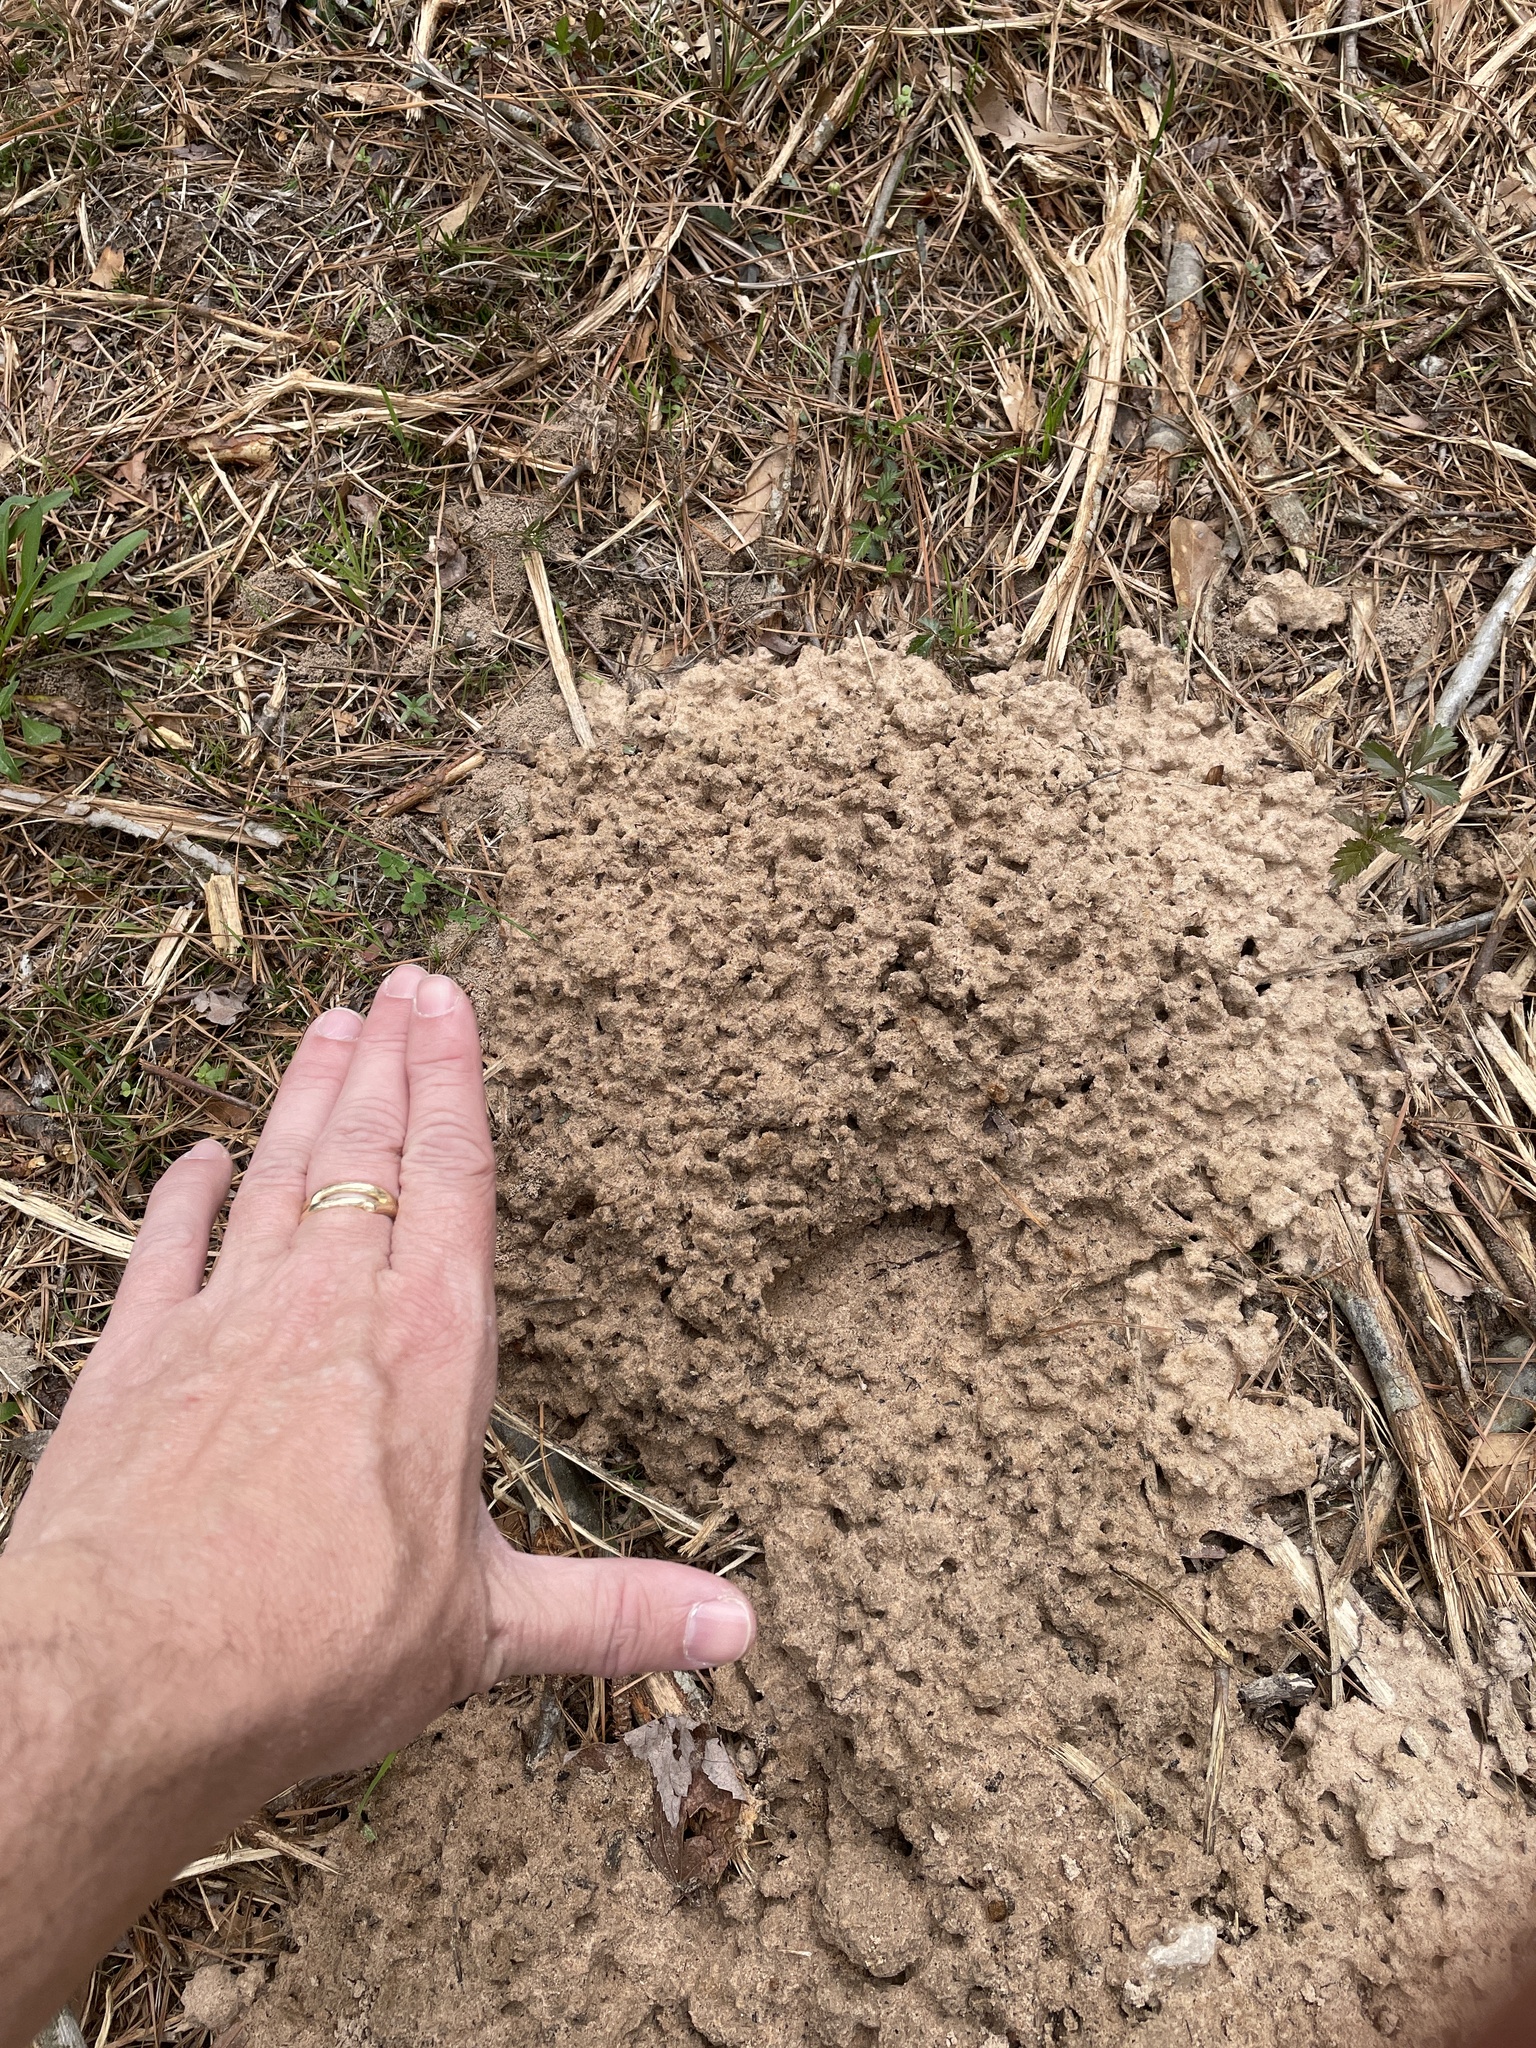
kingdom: Animalia
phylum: Chordata
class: Mammalia
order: Rodentia
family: Geomyidae
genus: Geomys
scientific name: Geomys breviceps
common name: Baird's pocket gopher
